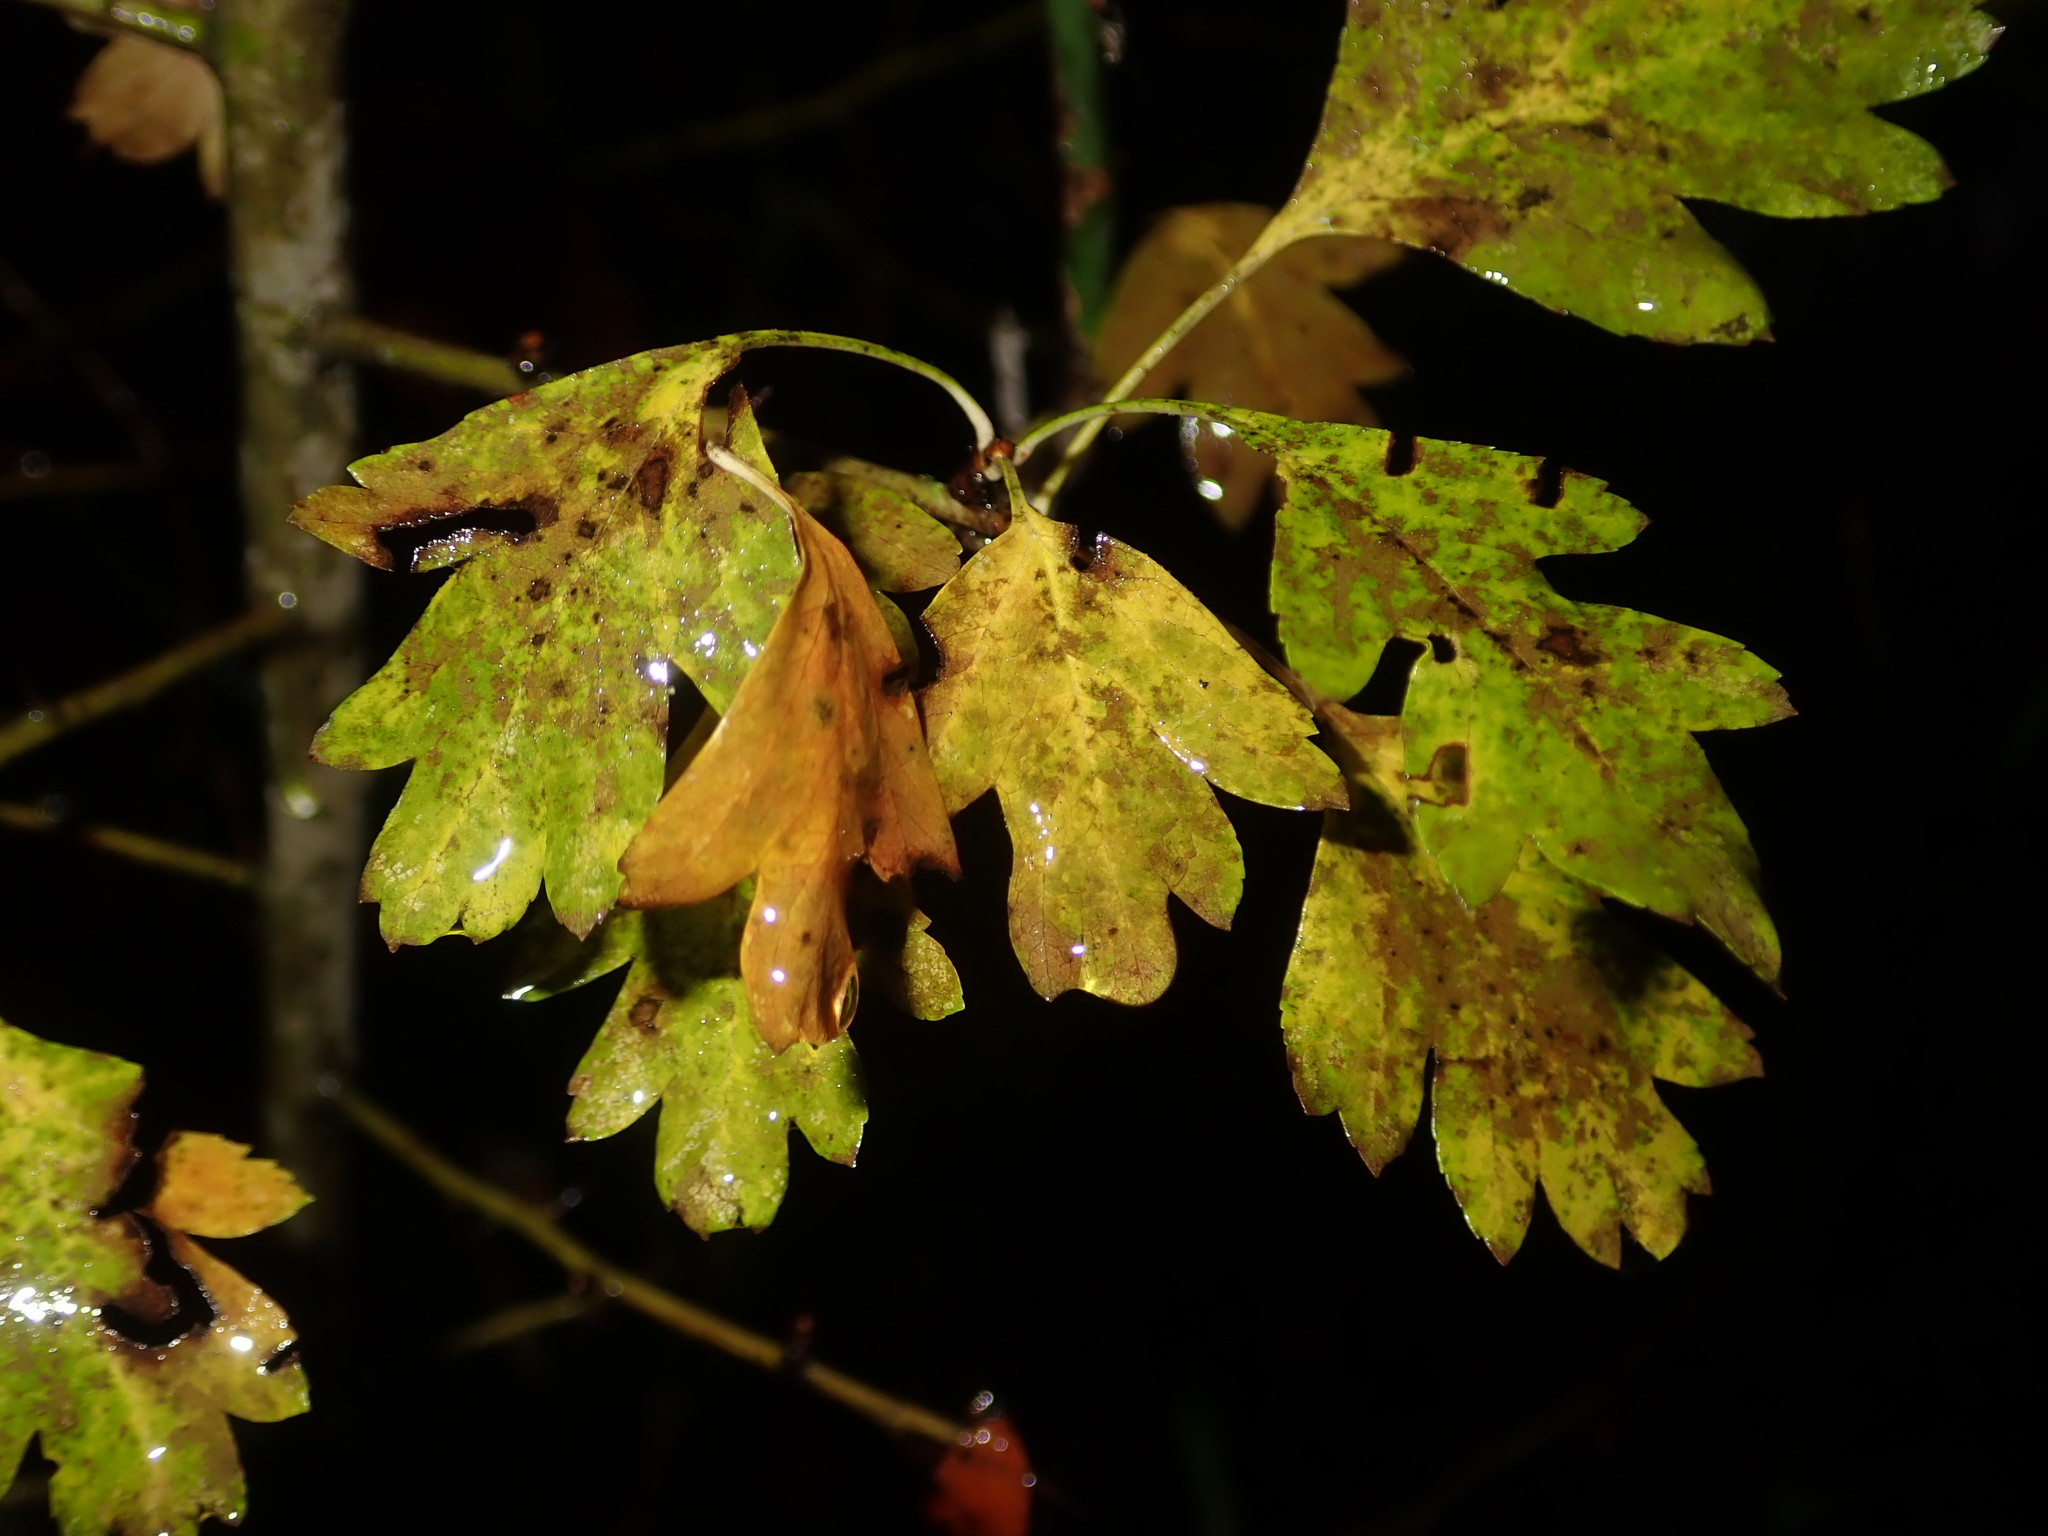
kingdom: Plantae
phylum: Tracheophyta
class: Magnoliopsida
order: Rosales
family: Rosaceae
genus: Crataegus
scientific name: Crataegus monogyna
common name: Hawthorn
